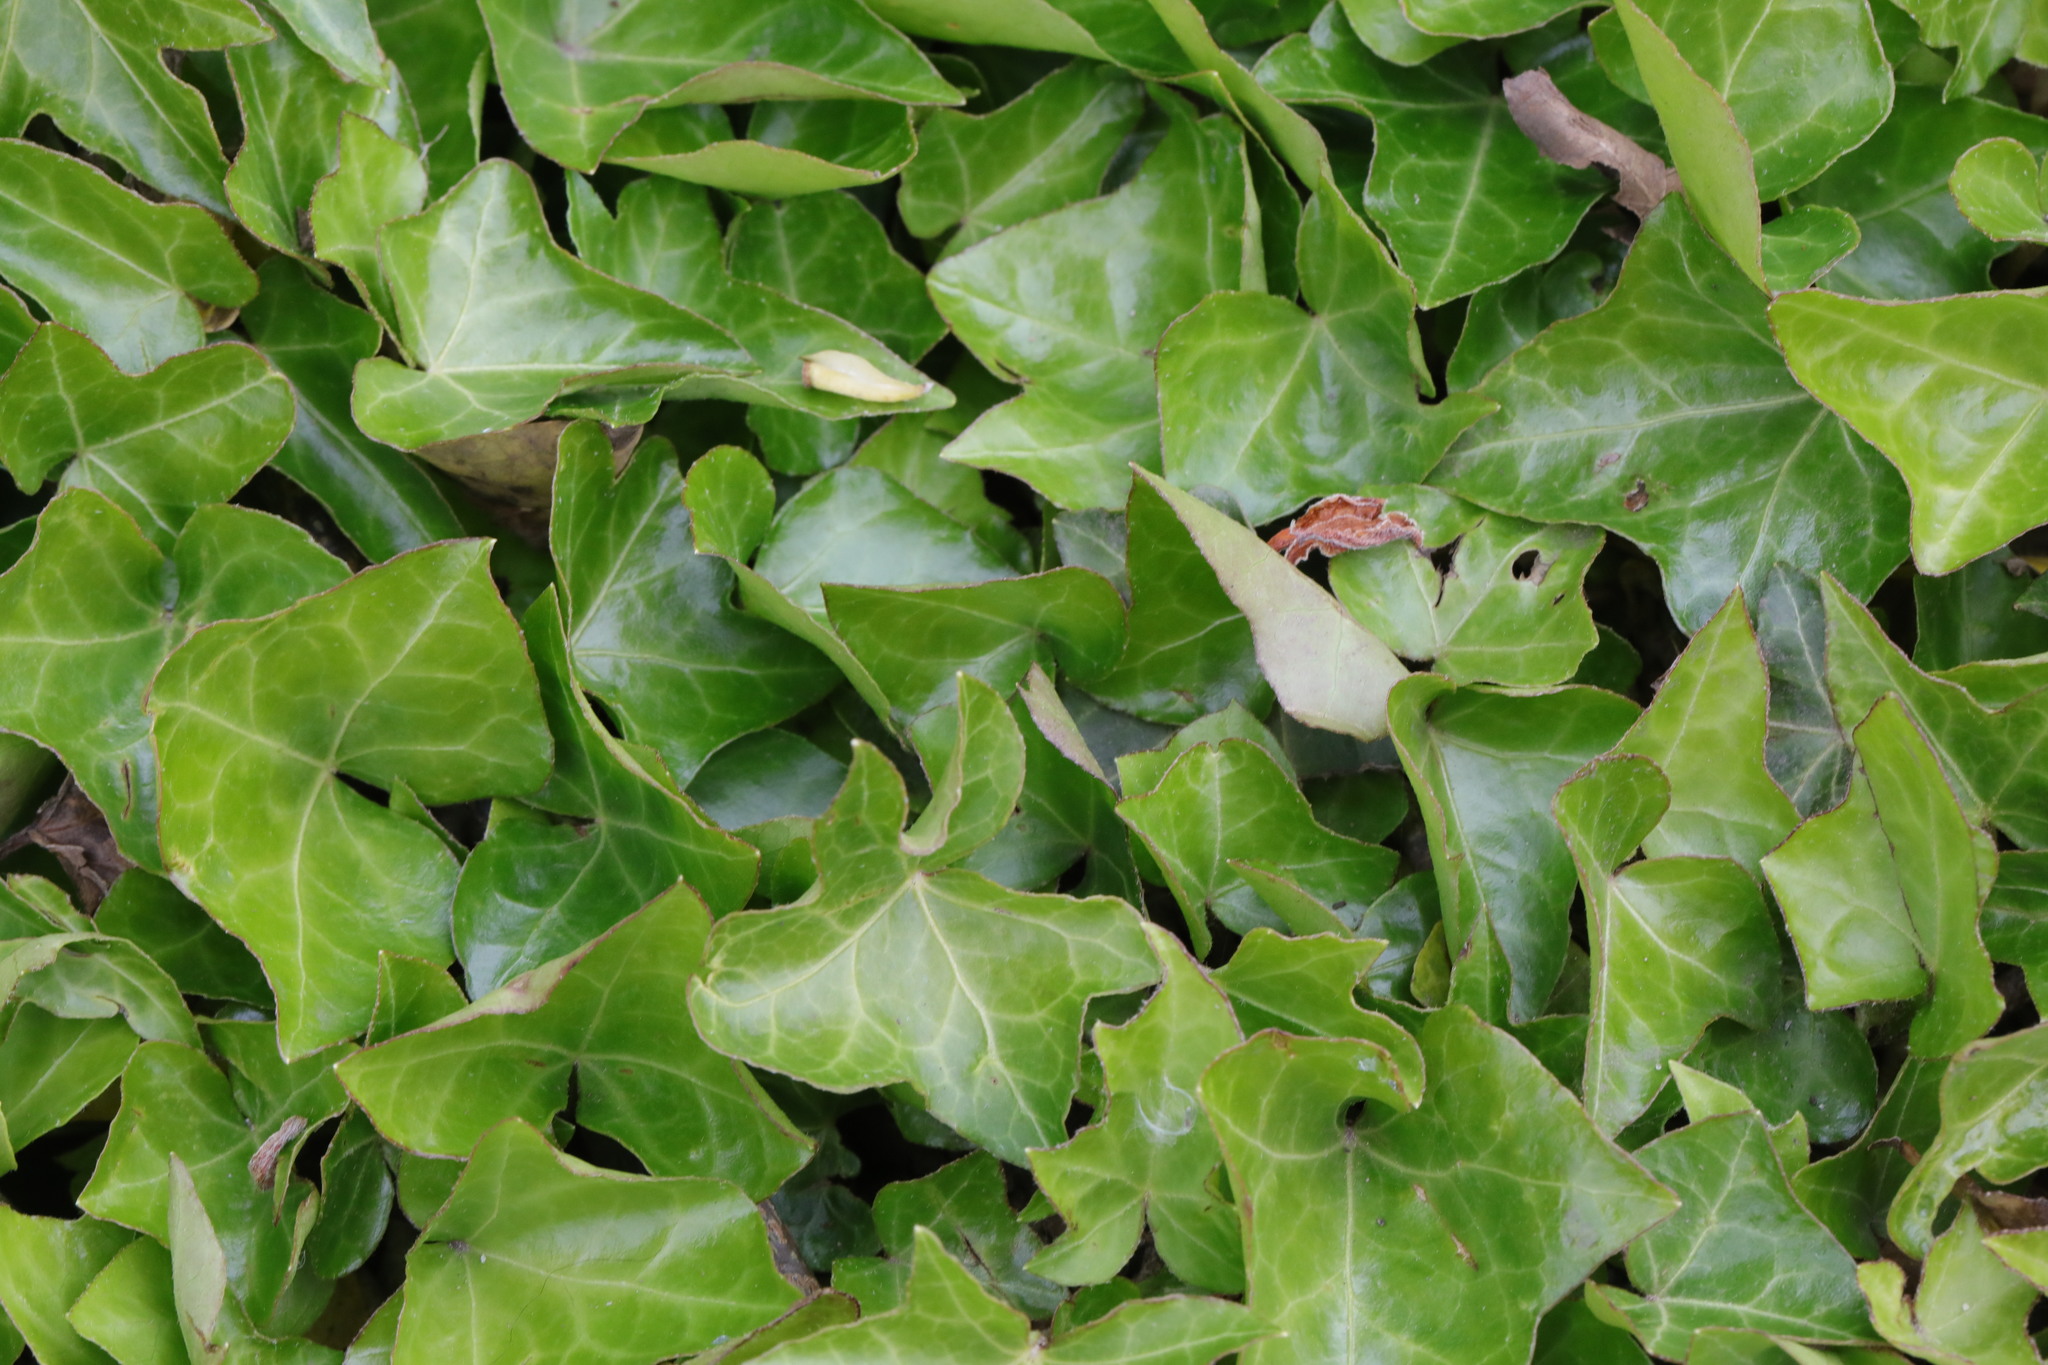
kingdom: Plantae
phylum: Tracheophyta
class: Magnoliopsida
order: Apiales
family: Araliaceae
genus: Hedera
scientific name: Hedera helix
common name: Ivy
